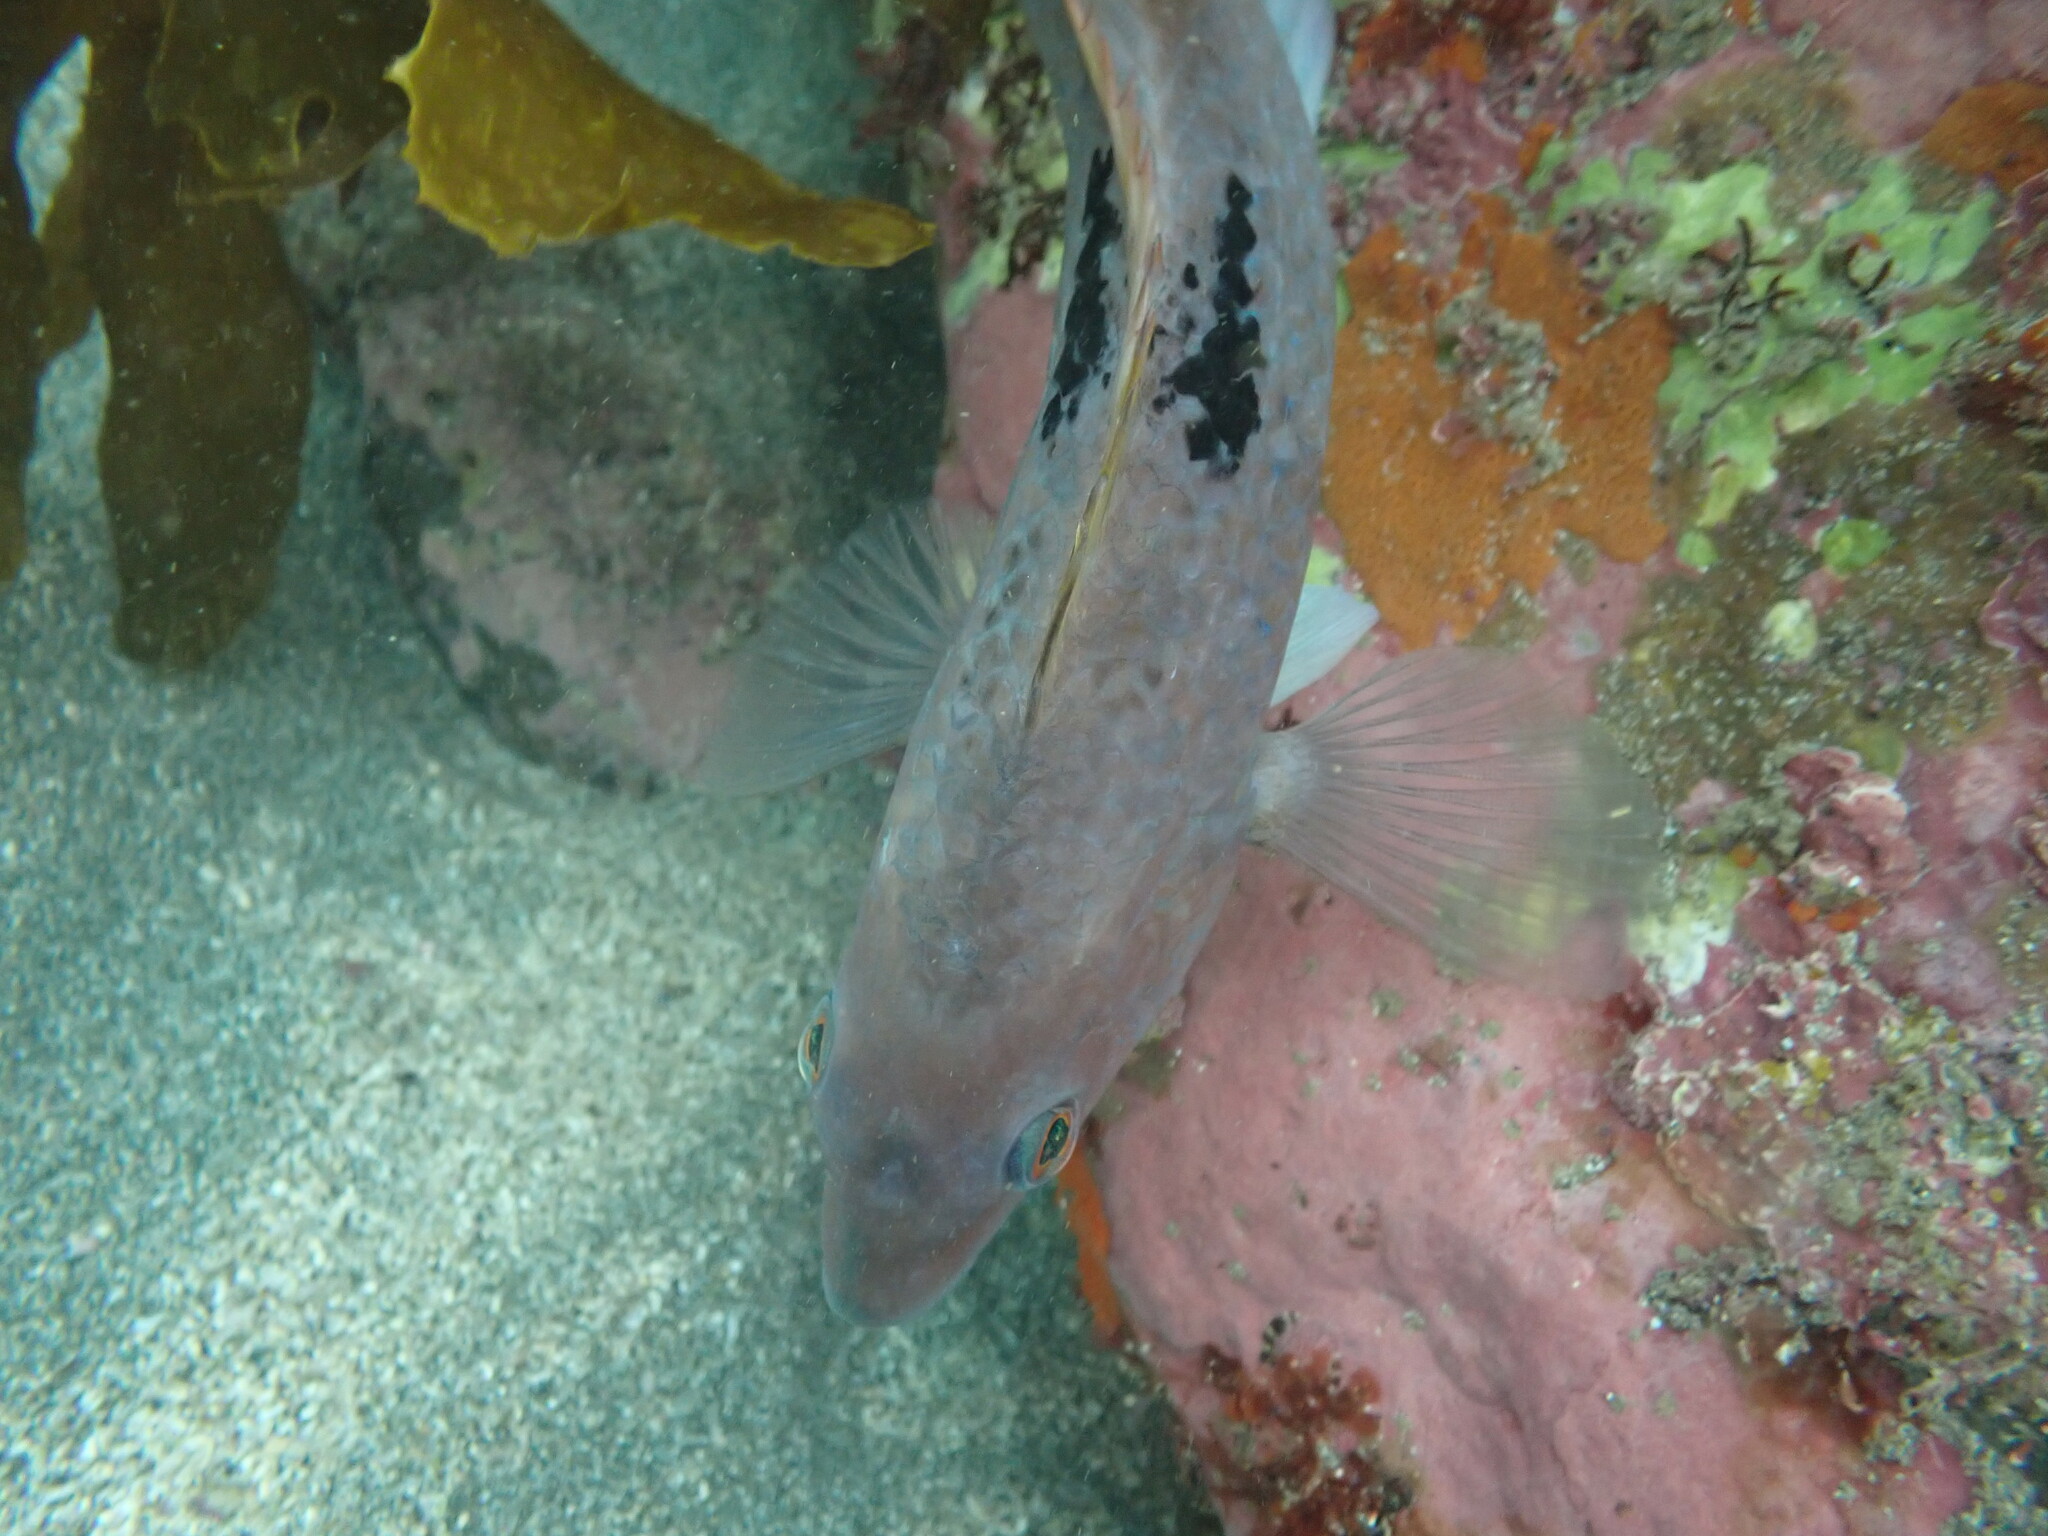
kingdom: Animalia
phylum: Chordata
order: Perciformes
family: Labridae
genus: Notolabrus
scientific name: Notolabrus celidotus
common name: Spotty
